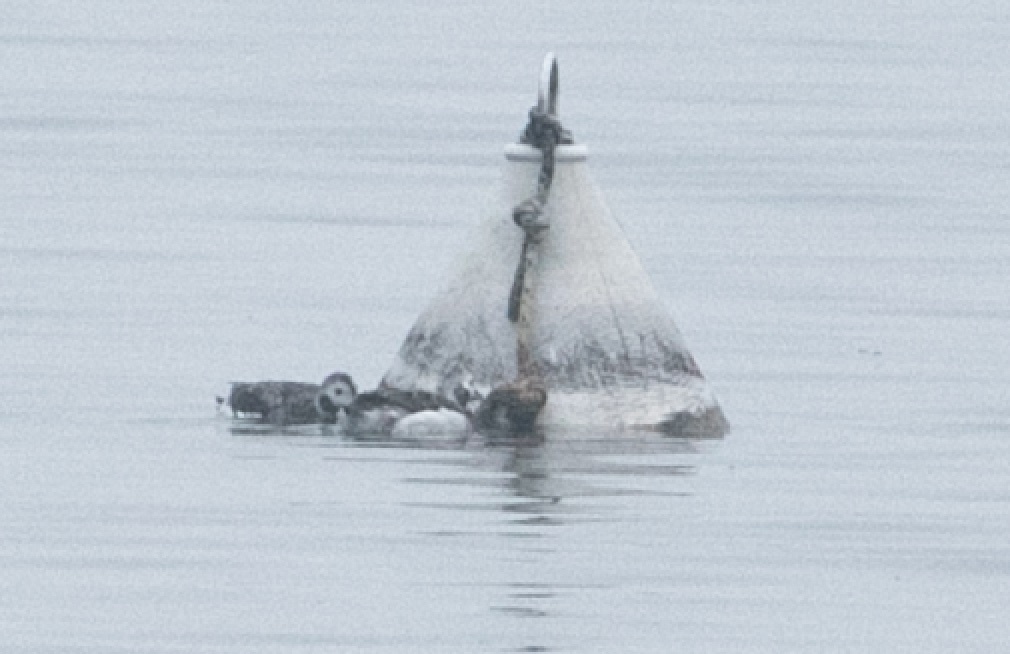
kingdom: Animalia
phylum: Chordata
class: Aves
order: Anseriformes
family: Anatidae
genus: Clangula
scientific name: Clangula hyemalis
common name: Long-tailed duck
